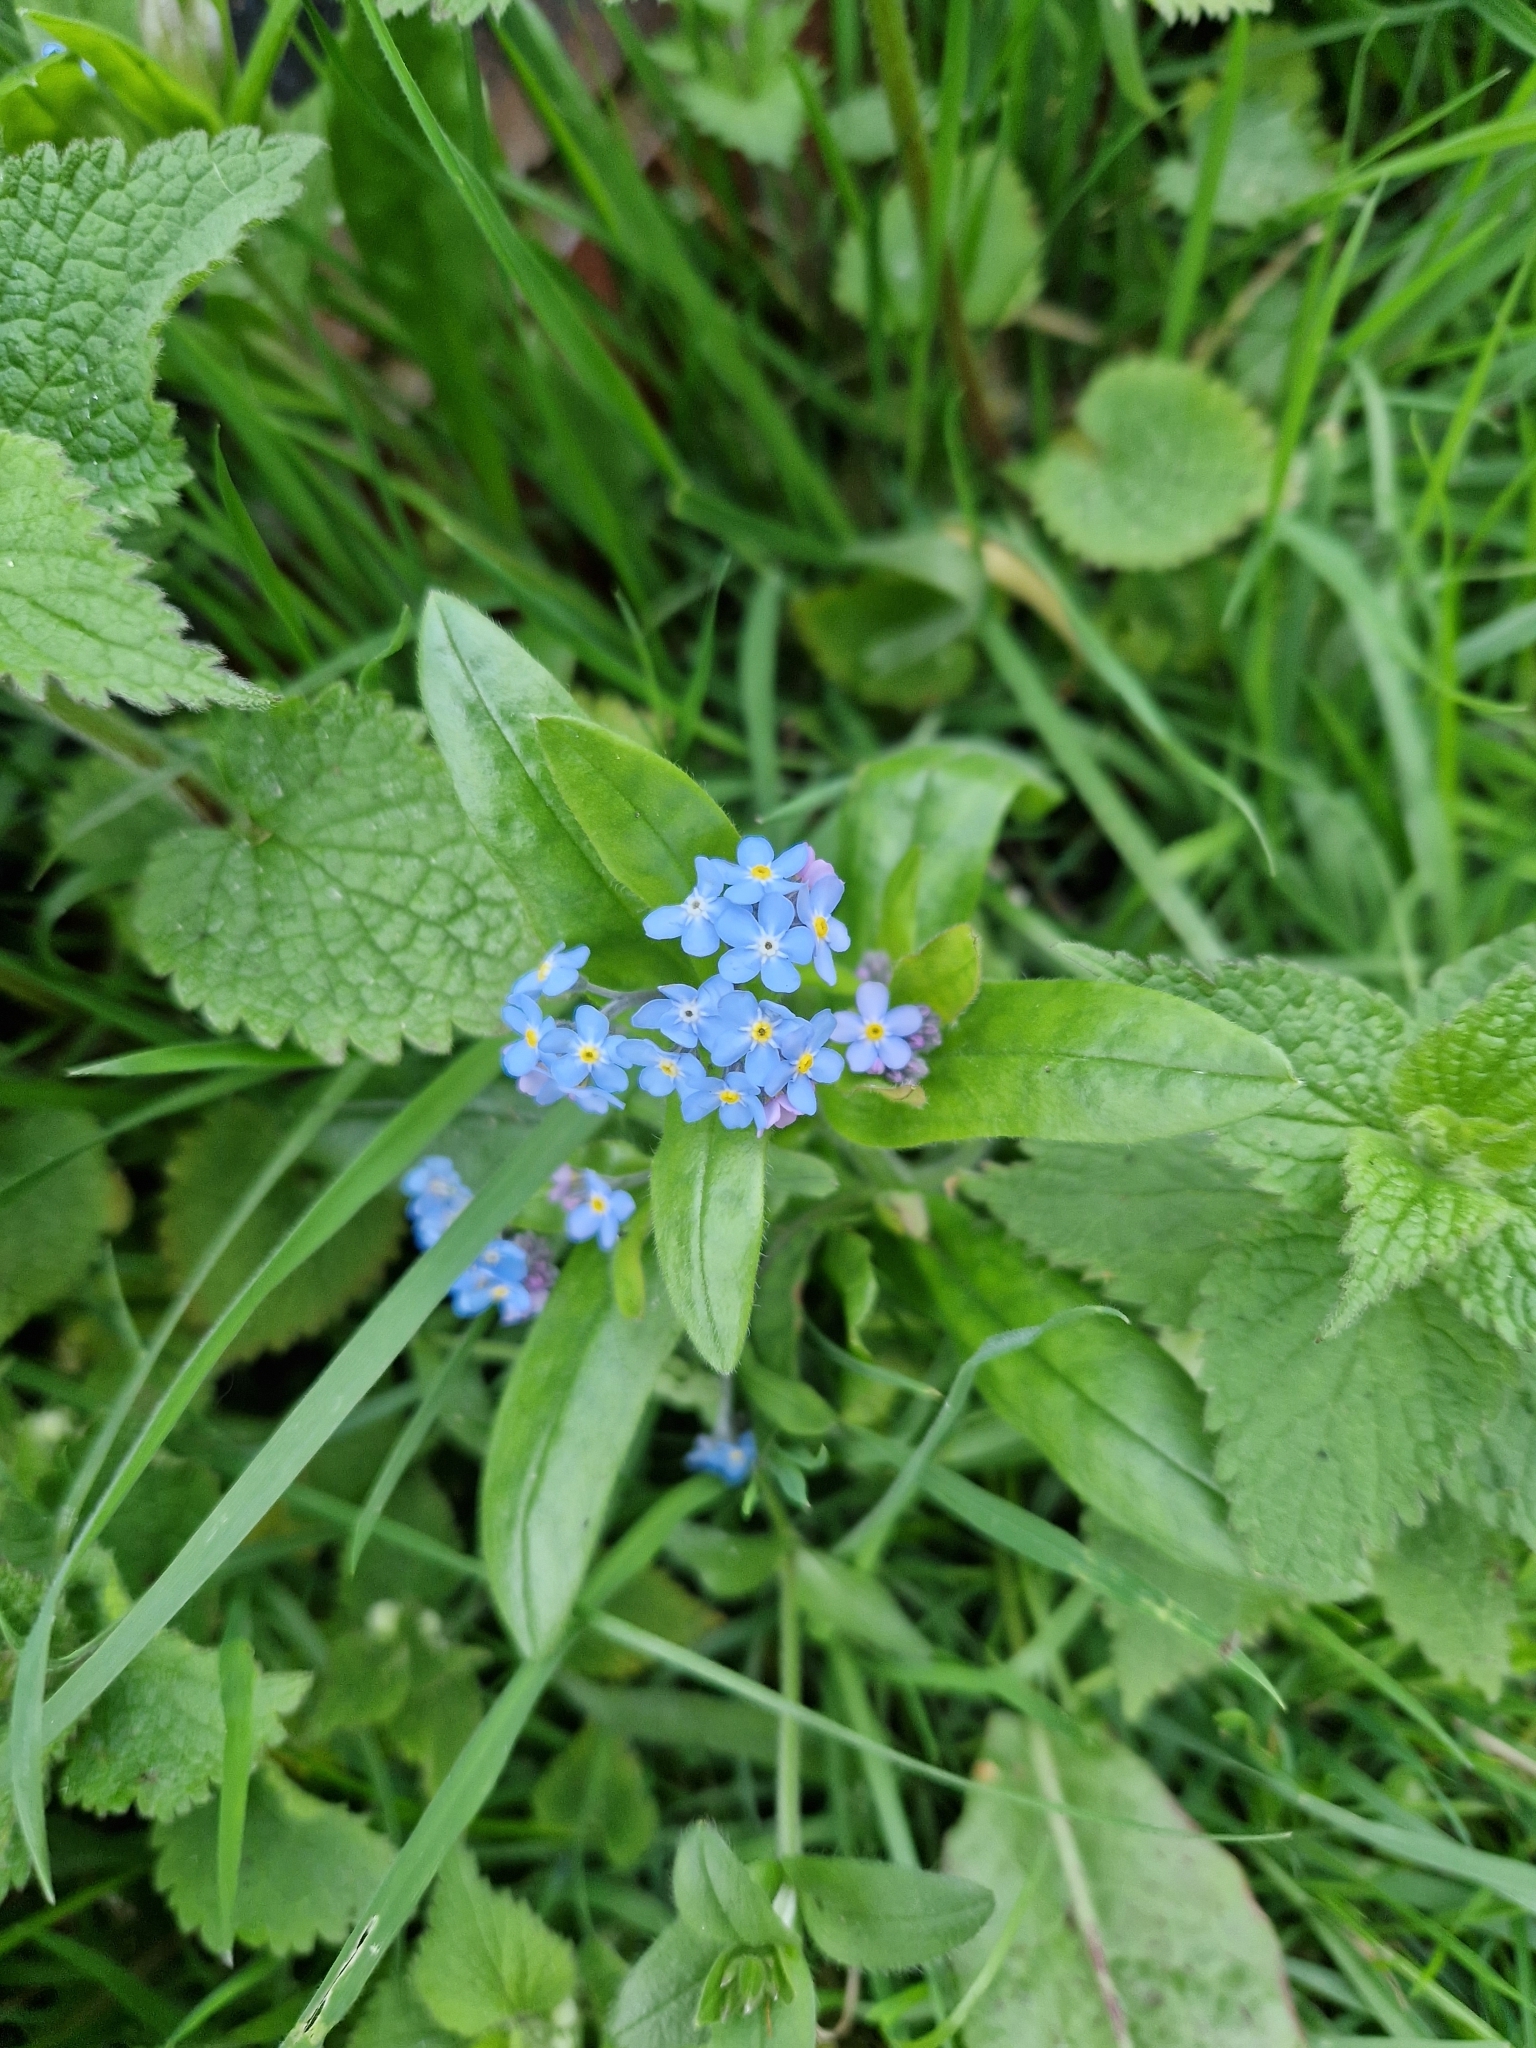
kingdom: Plantae
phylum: Tracheophyta
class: Magnoliopsida
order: Boraginales
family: Boraginaceae
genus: Myosotis
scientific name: Myosotis sylvatica
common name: Wood forget-me-not
